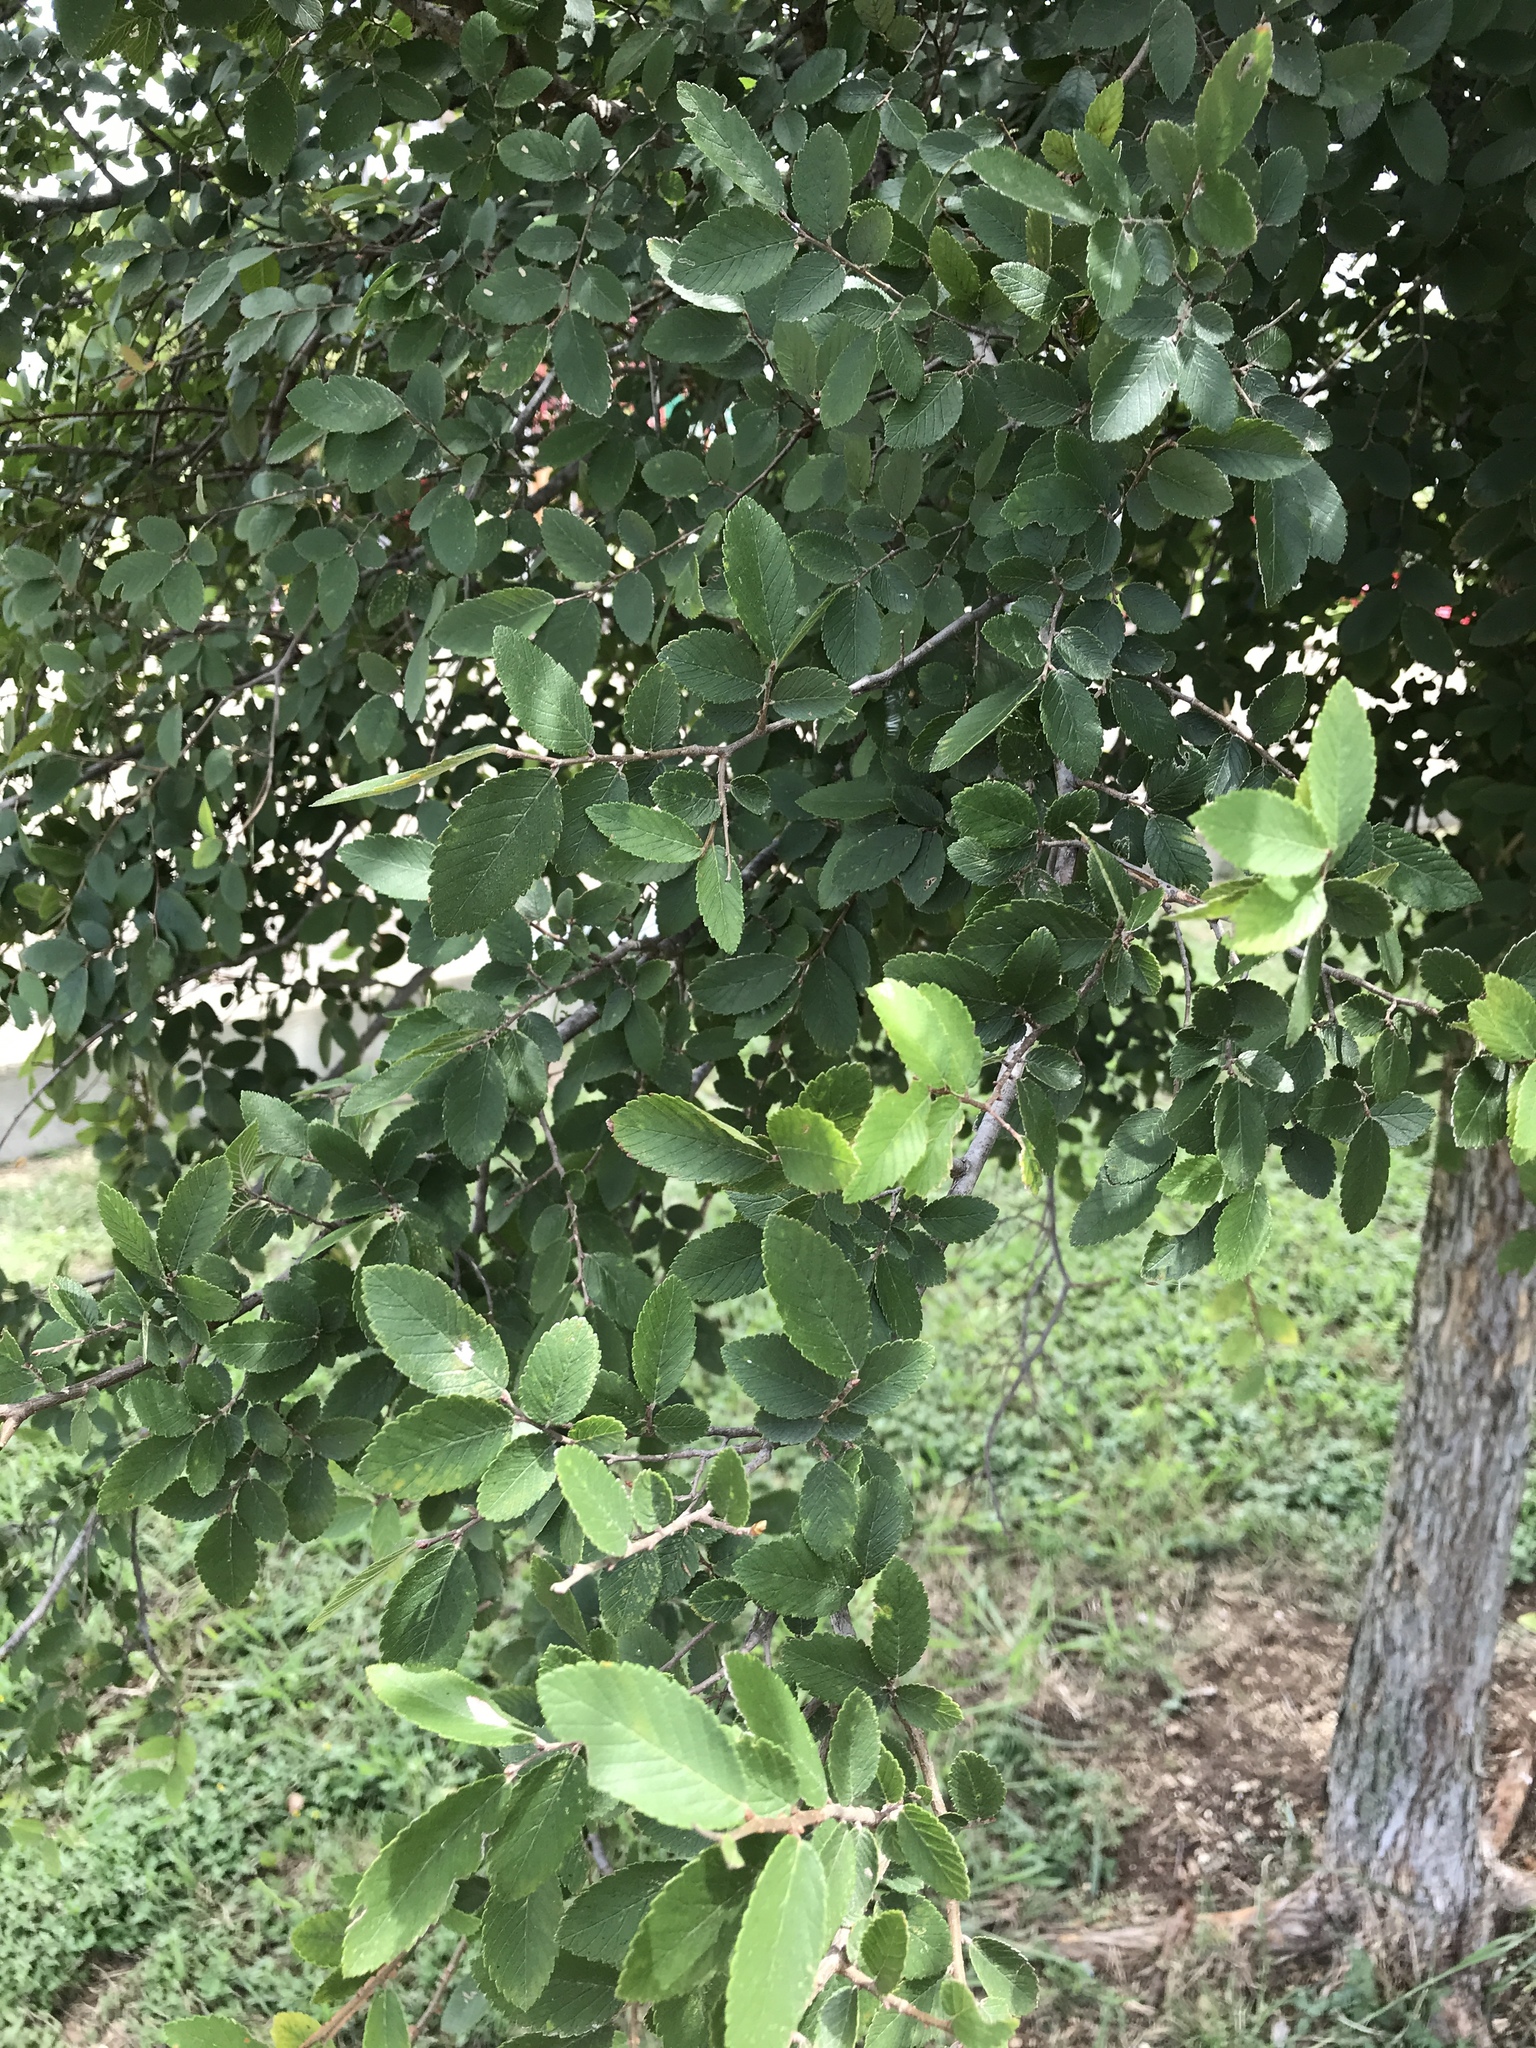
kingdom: Plantae
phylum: Tracheophyta
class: Magnoliopsida
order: Rosales
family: Ulmaceae
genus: Ulmus
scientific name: Ulmus crassifolia
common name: Basket elm
